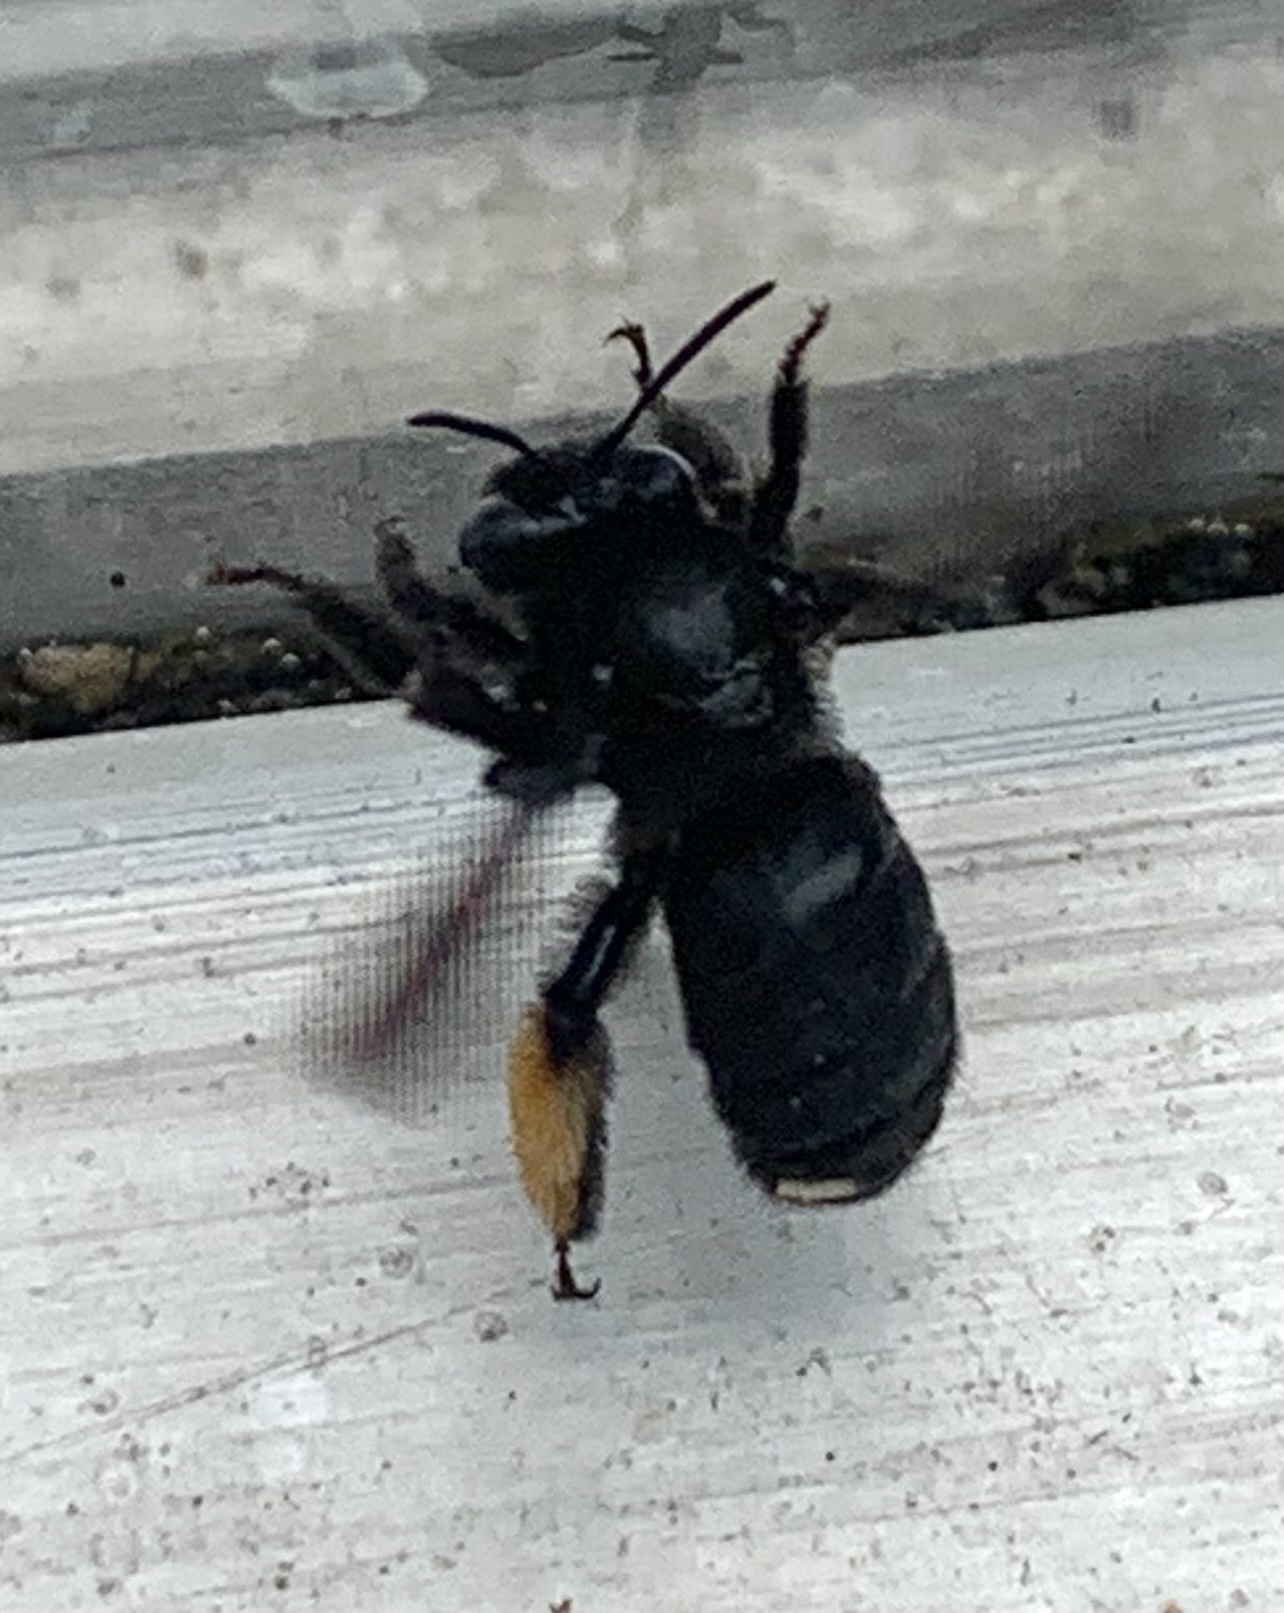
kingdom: Animalia
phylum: Arthropoda
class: Insecta
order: Hymenoptera
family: Apidae
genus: Melissodes
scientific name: Melissodes bimaculatus
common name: Two-spotted long-horned bee
